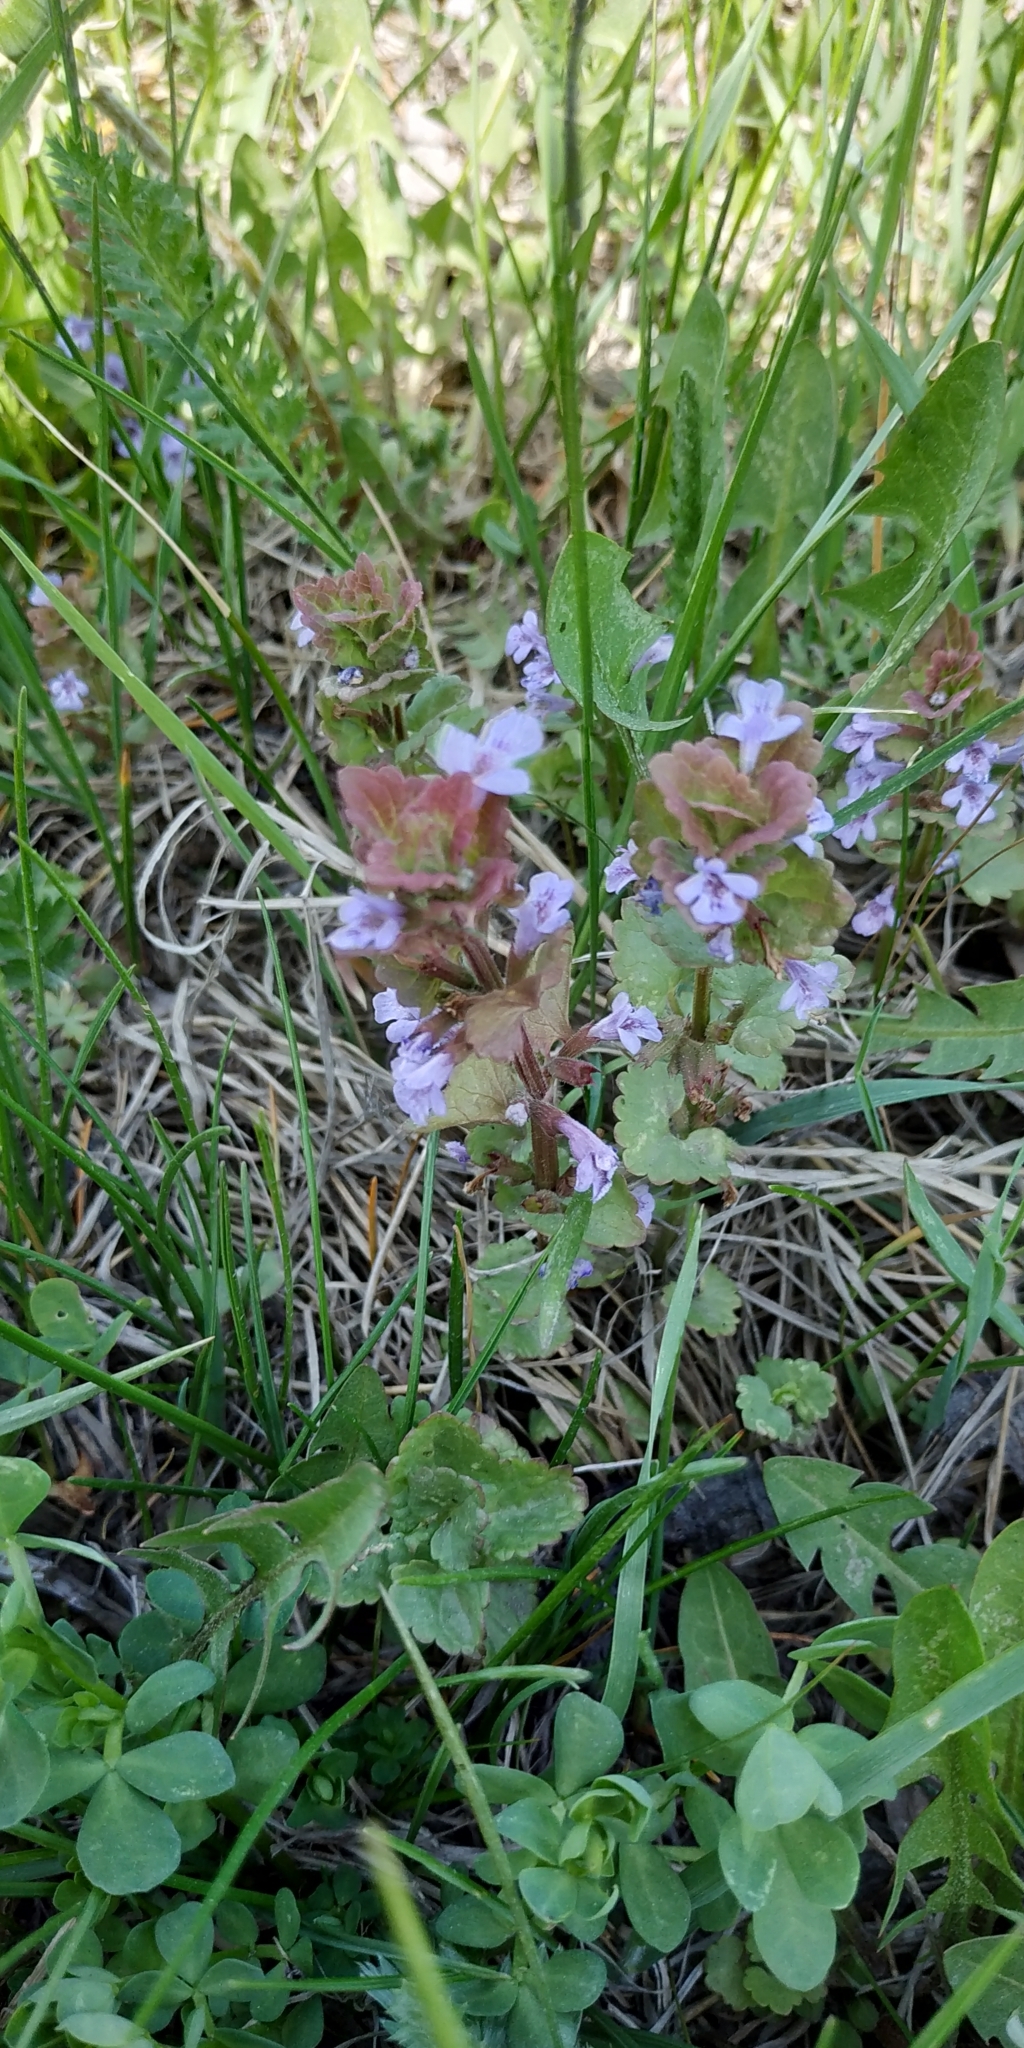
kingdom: Plantae
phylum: Tracheophyta
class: Magnoliopsida
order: Lamiales
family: Lamiaceae
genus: Glechoma
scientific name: Glechoma hederacea
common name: Ground ivy
